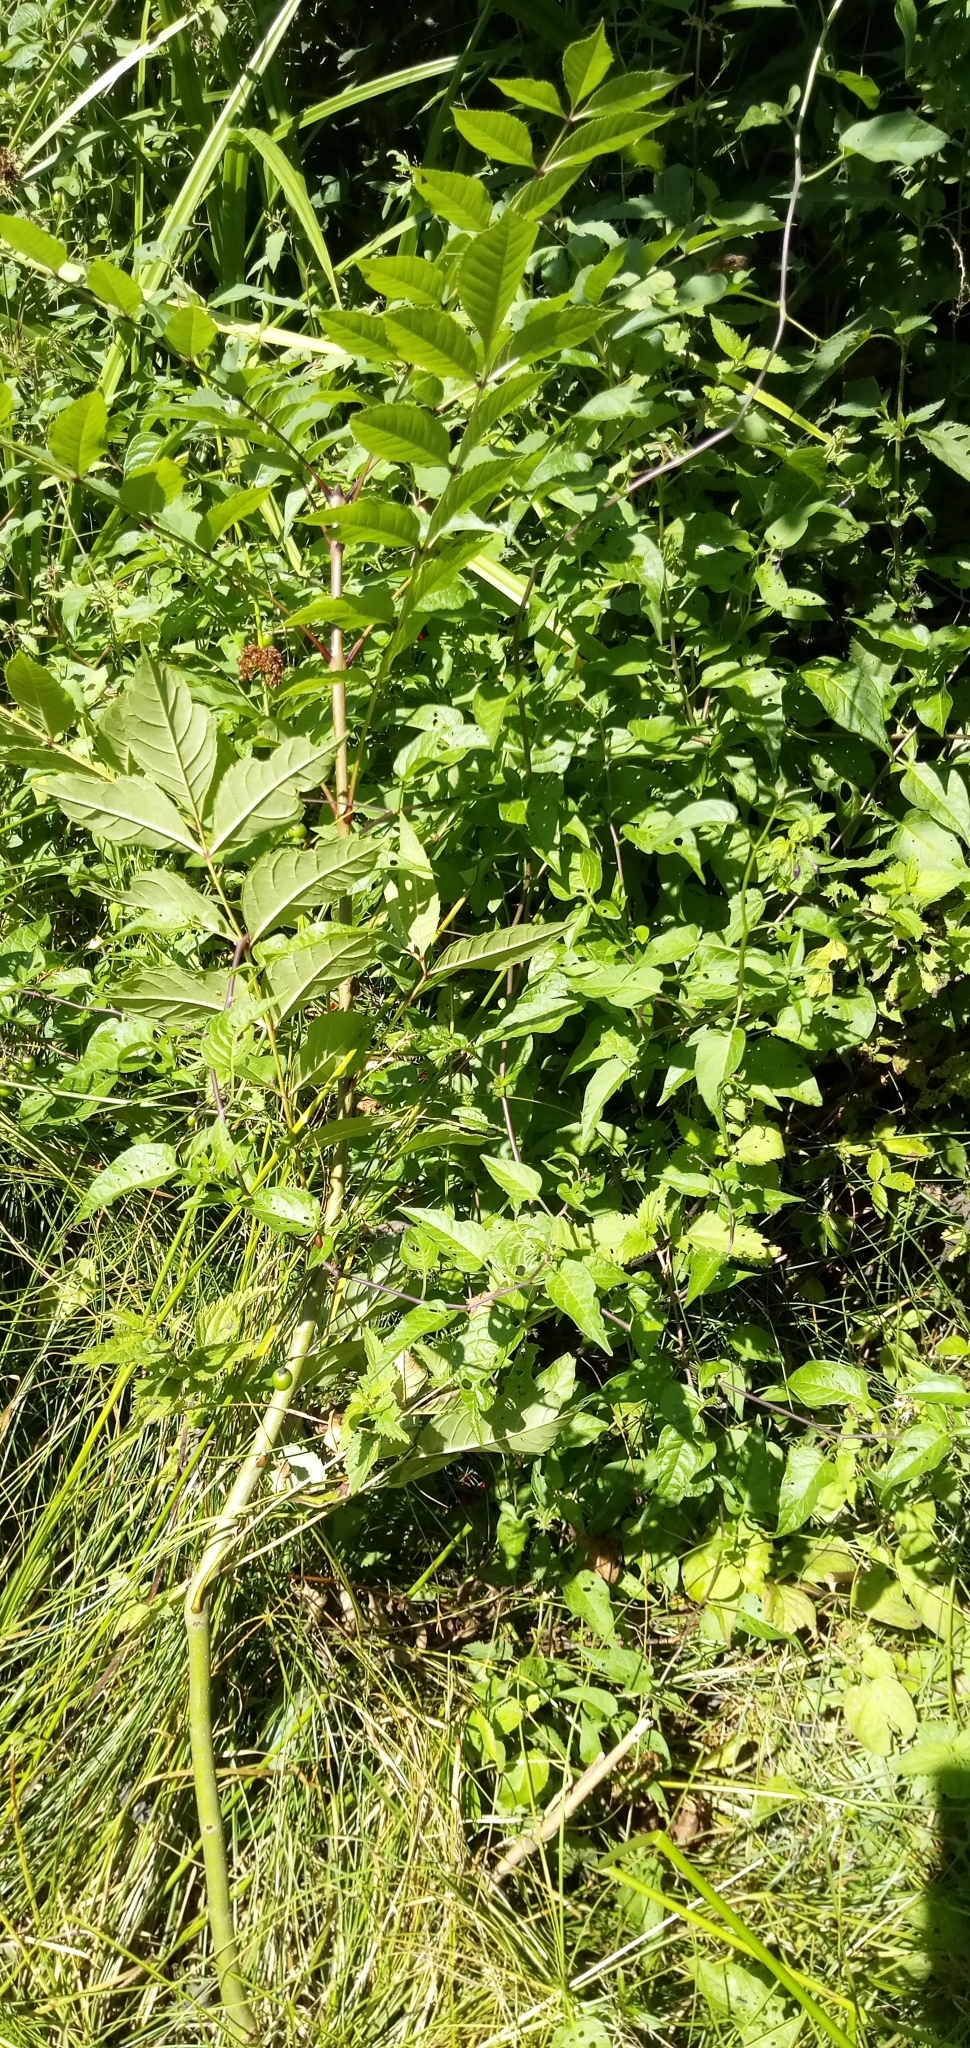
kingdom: Plantae
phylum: Tracheophyta
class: Magnoliopsida
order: Solanales
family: Solanaceae
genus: Solanum
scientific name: Solanum dulcamara
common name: Climbing nightshade
